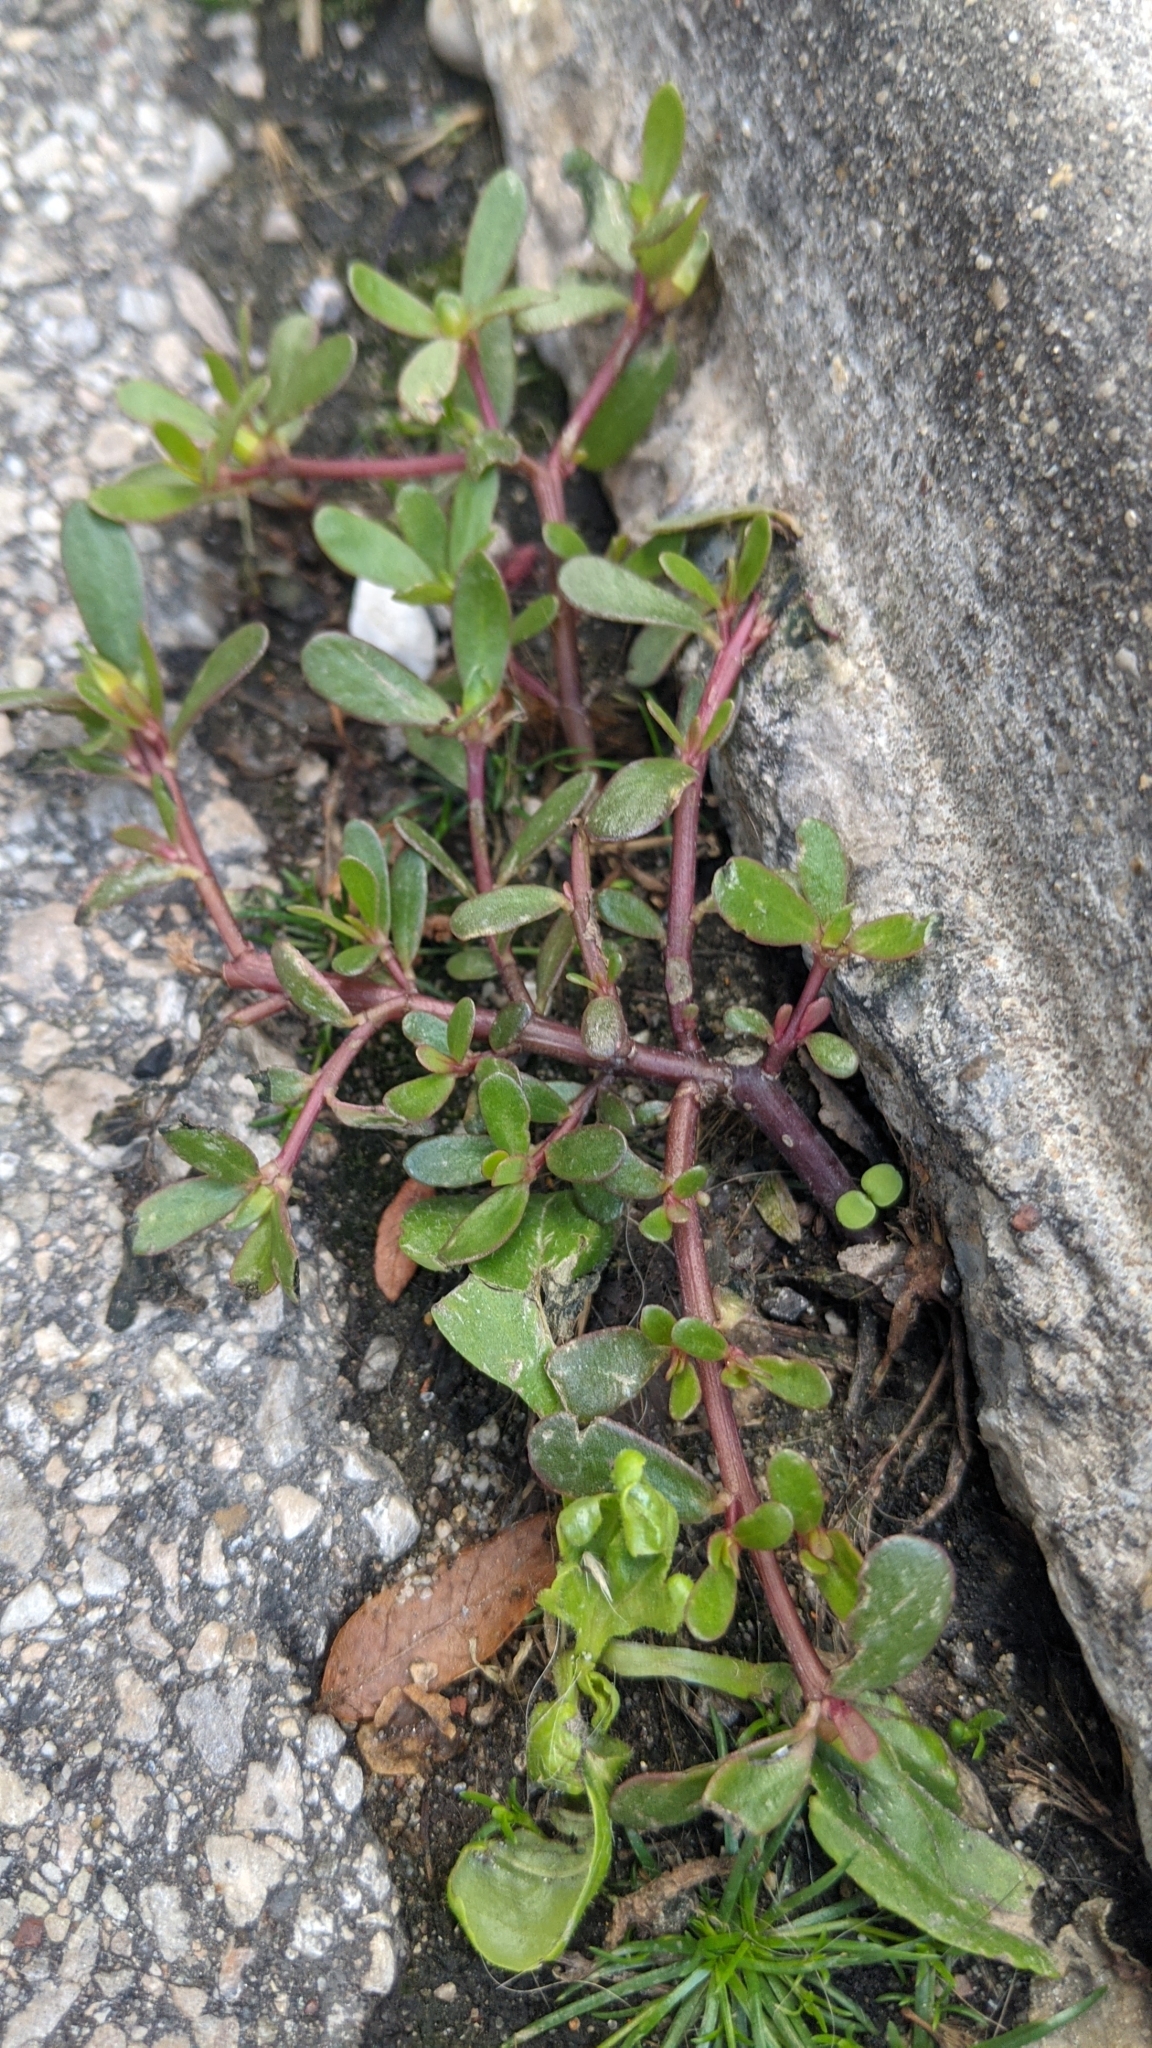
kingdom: Plantae
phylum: Tracheophyta
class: Magnoliopsida
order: Caryophyllales
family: Portulacaceae
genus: Portulaca
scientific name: Portulaca oleracea
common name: Common purslane
